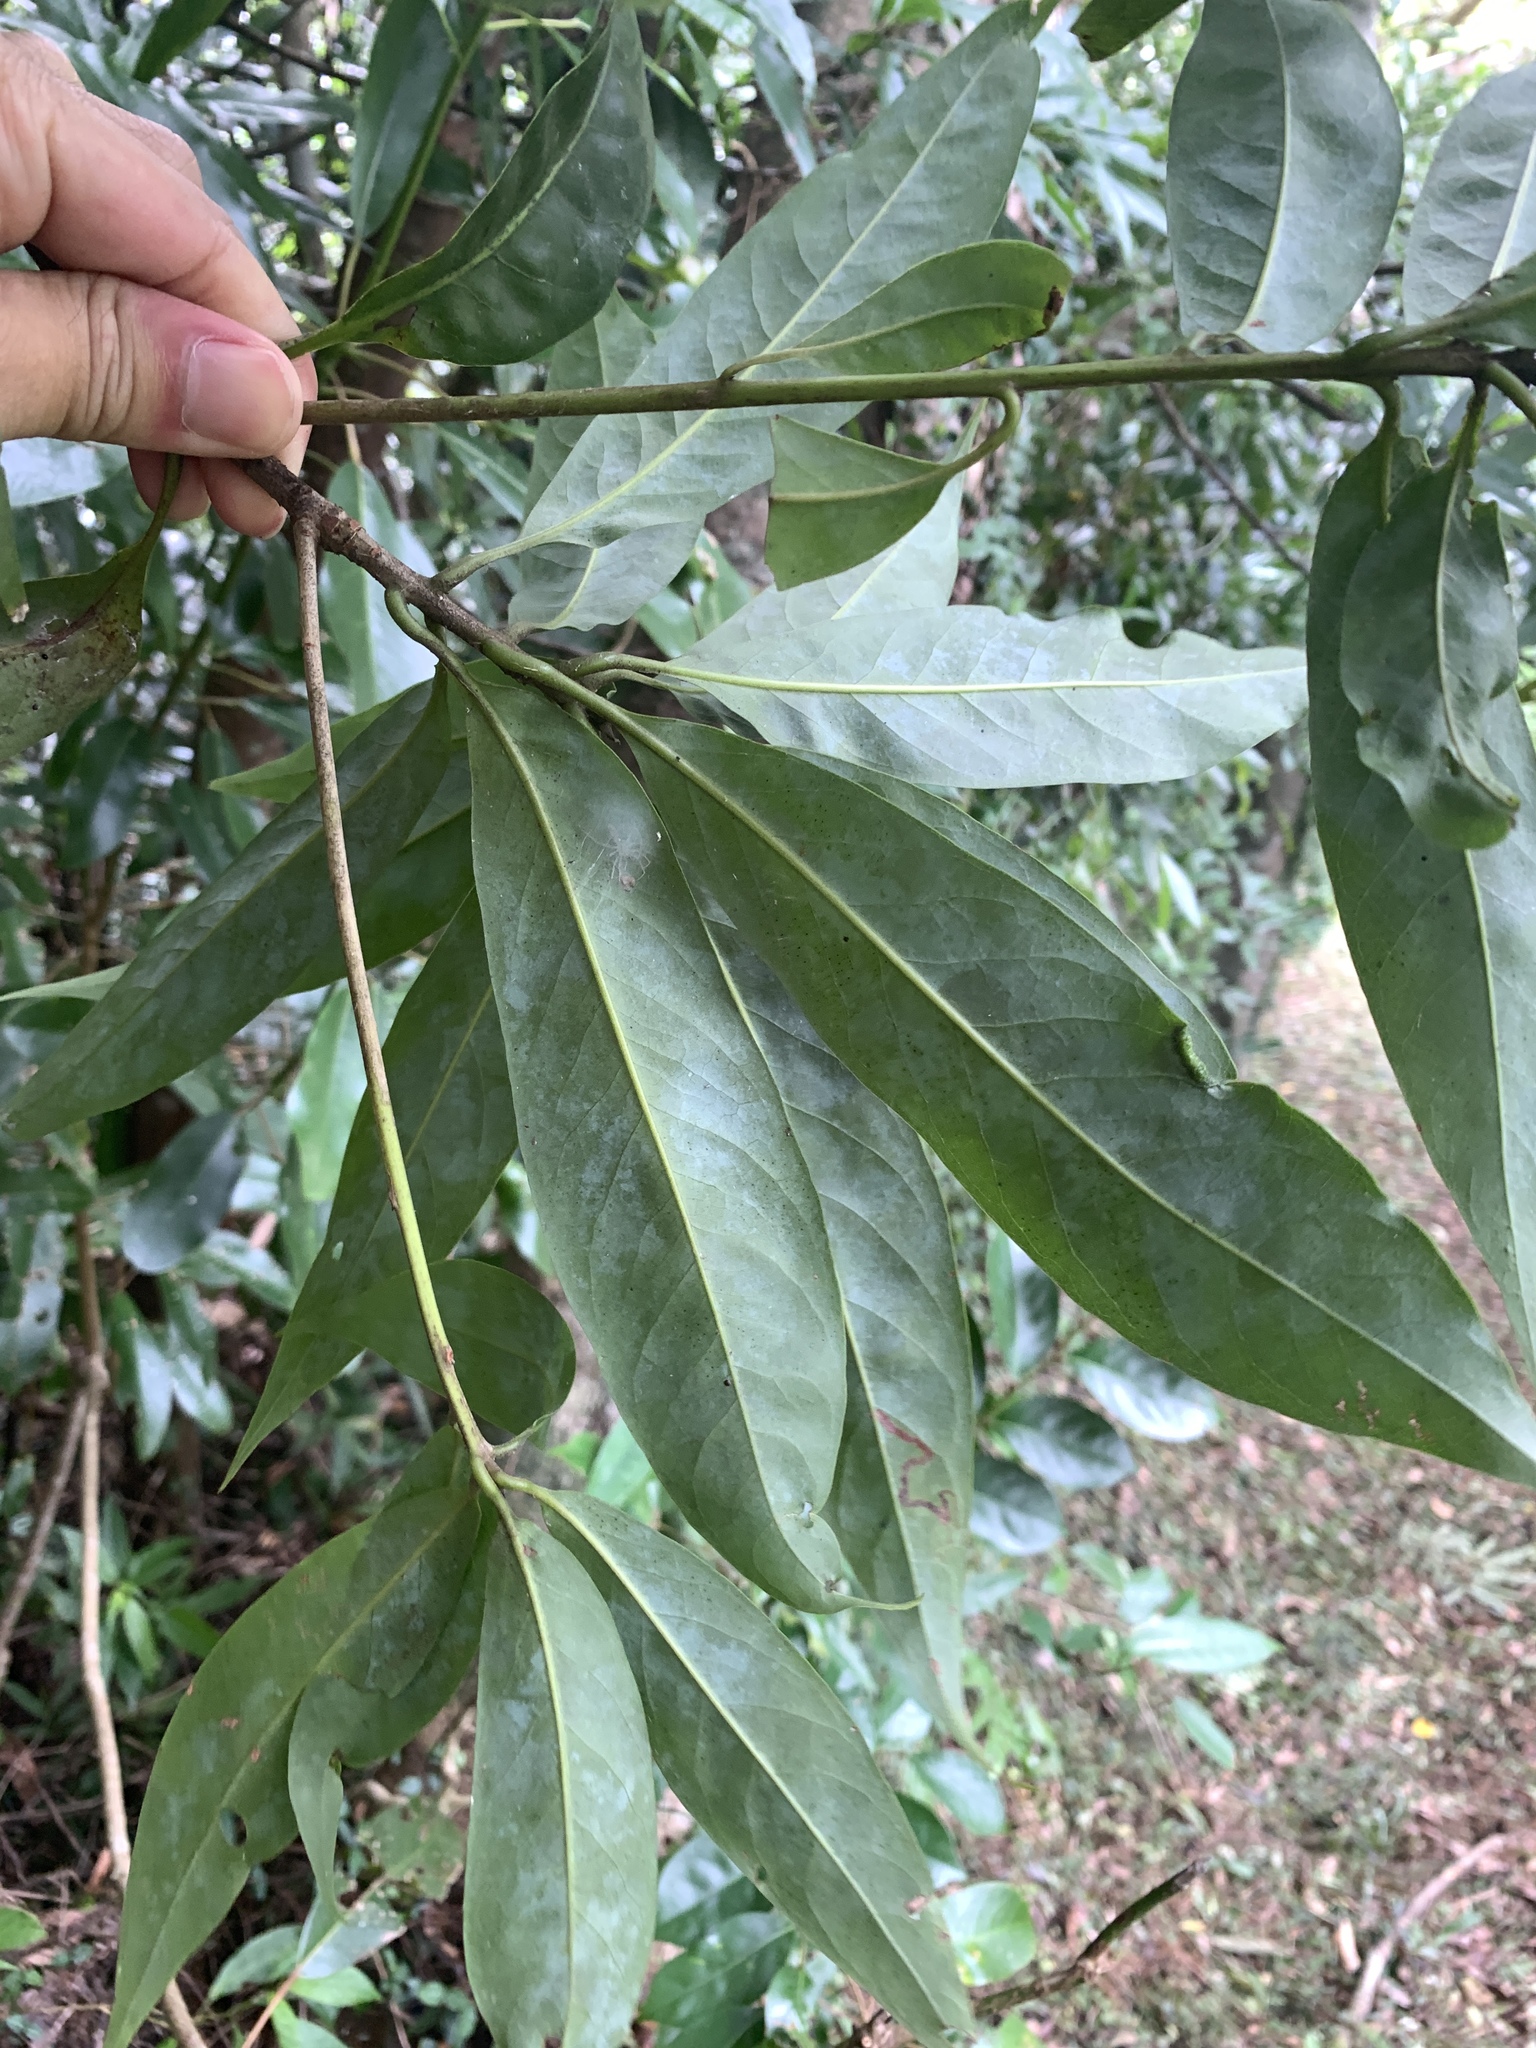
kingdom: Plantae
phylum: Tracheophyta
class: Magnoliopsida
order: Ericales
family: Theaceae
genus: Schima
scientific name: Schima superba
